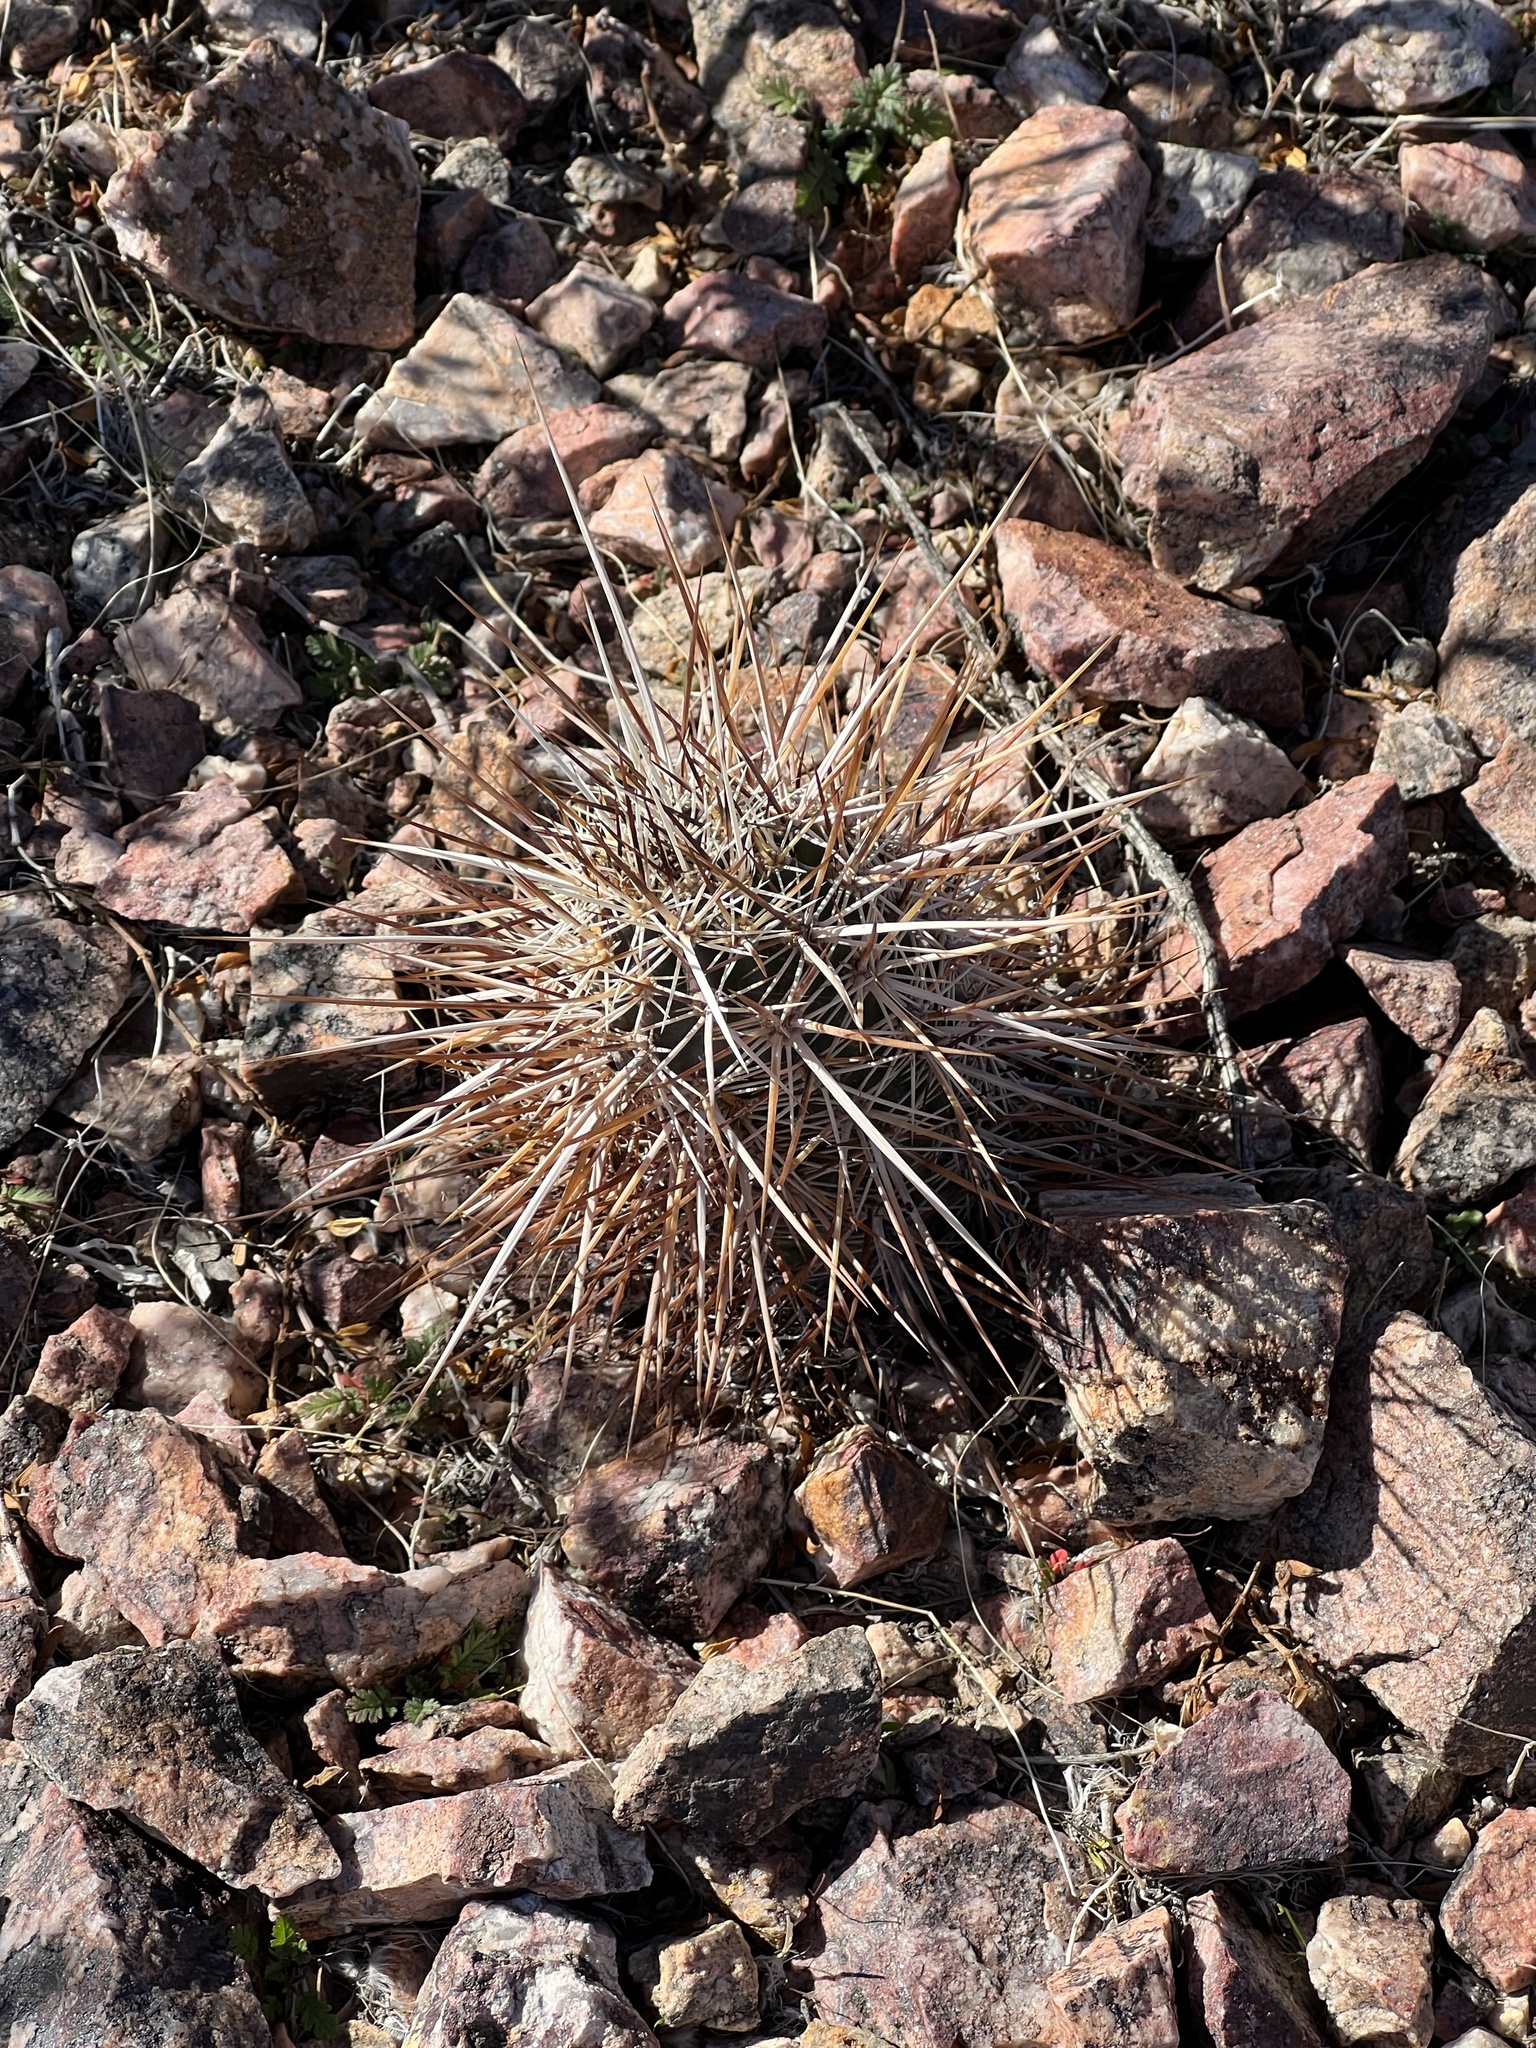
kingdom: Plantae
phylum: Tracheophyta
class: Magnoliopsida
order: Caryophyllales
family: Cactaceae
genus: Echinocereus
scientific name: Echinocereus engelmannii
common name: Engelmann's hedgehog cactus
